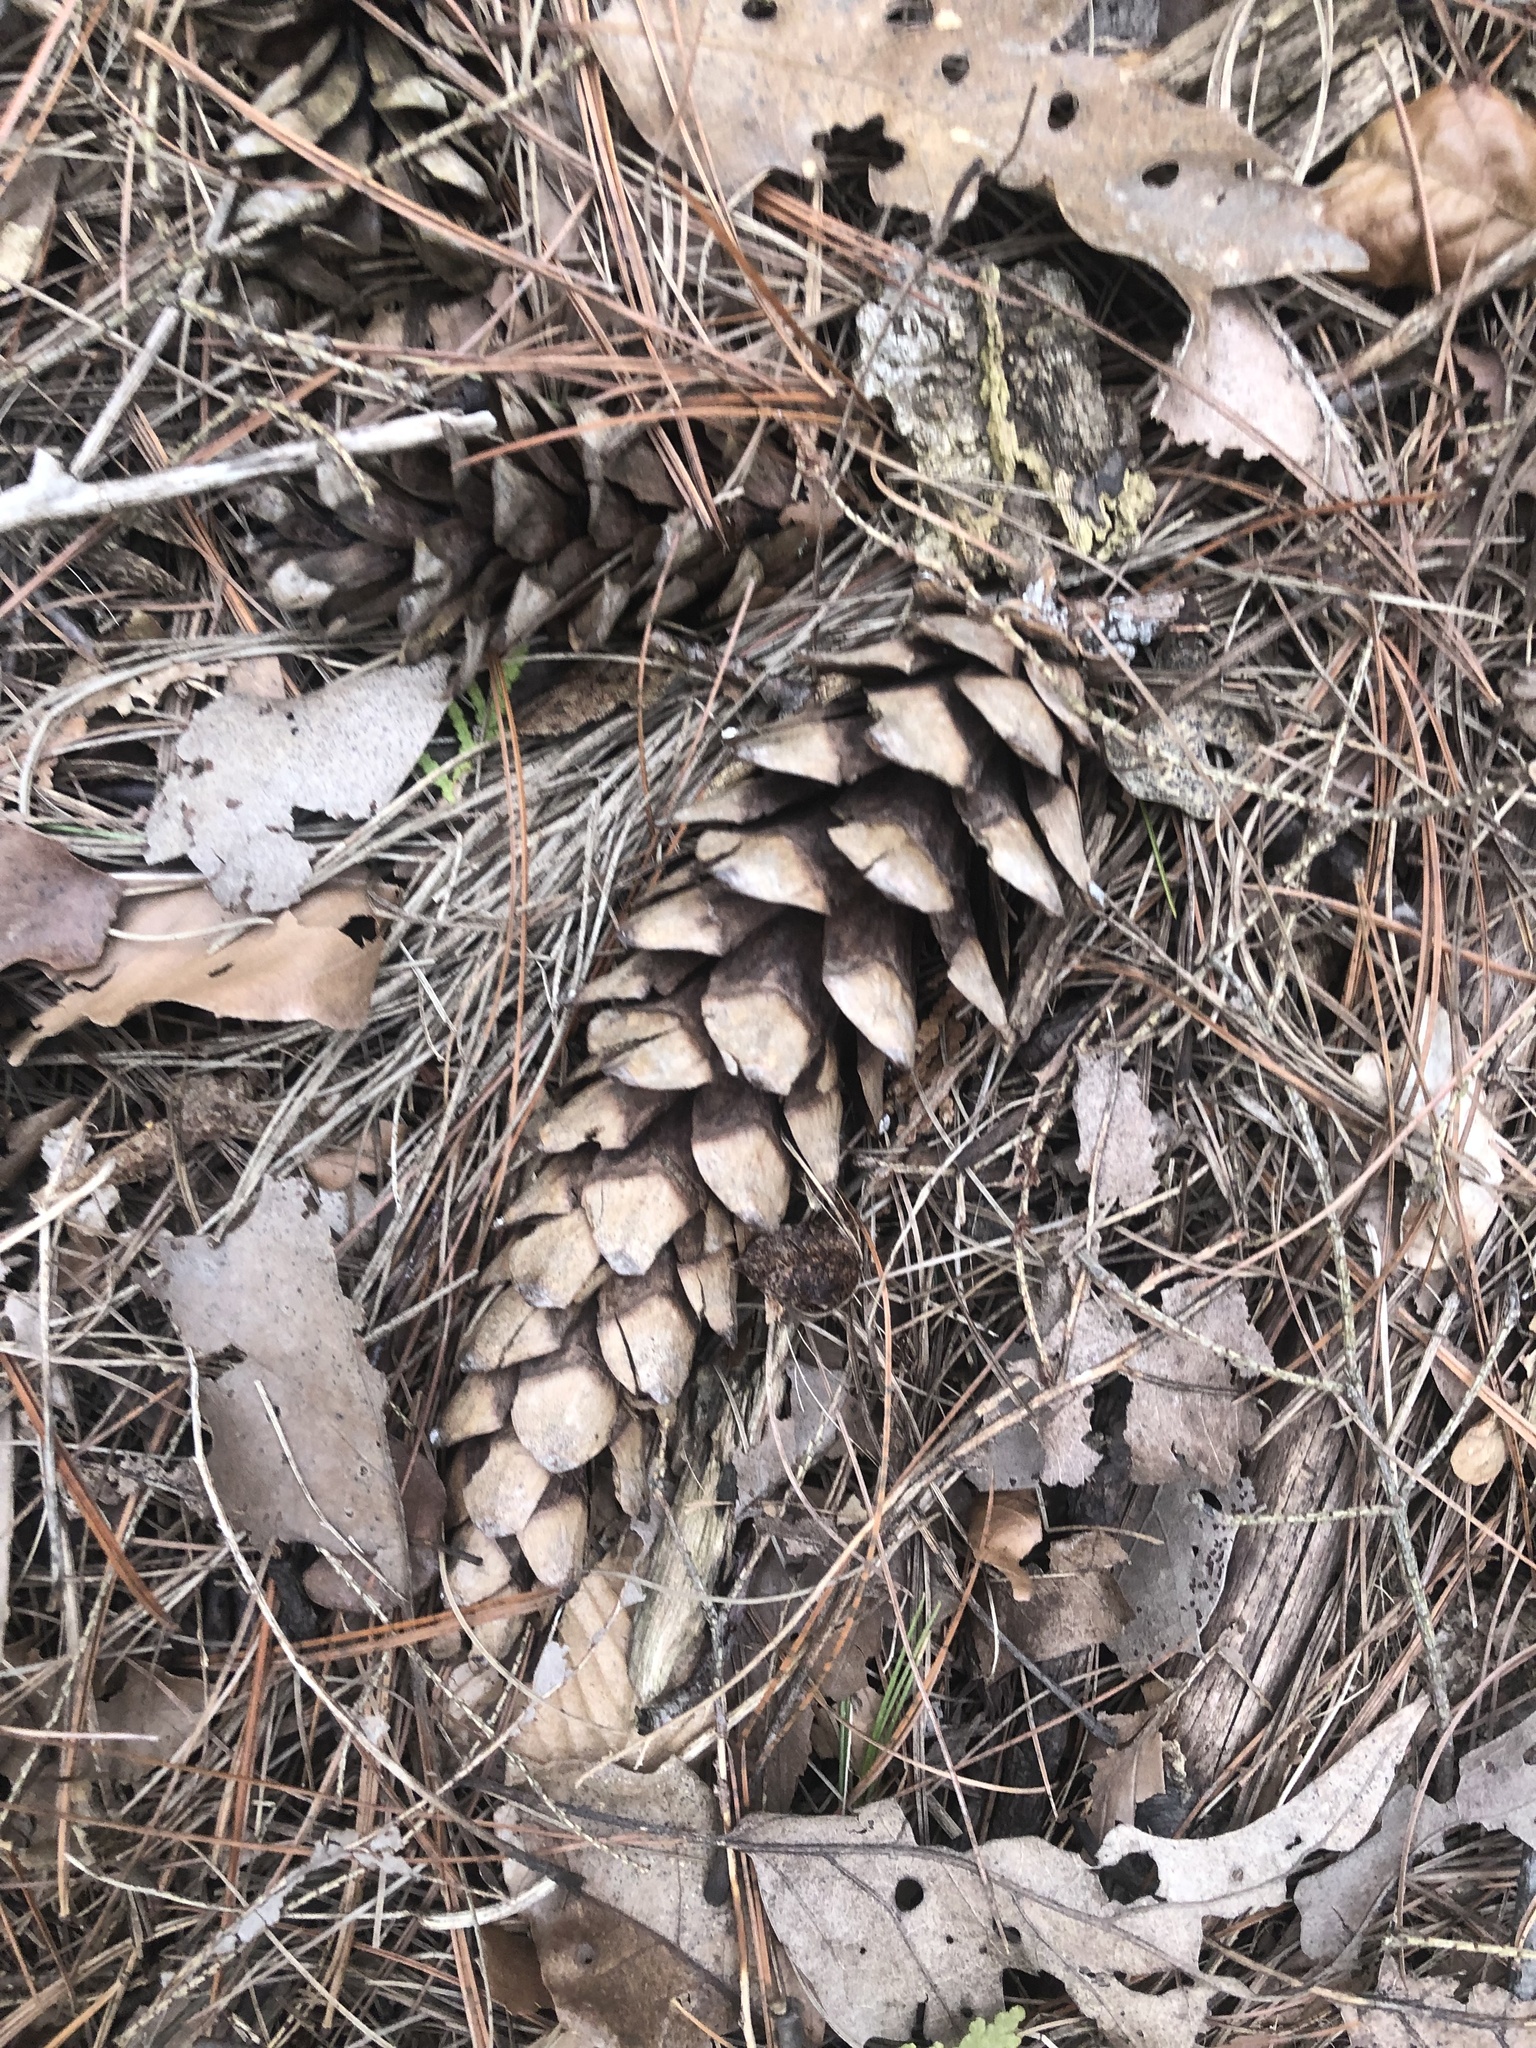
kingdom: Plantae
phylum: Tracheophyta
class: Pinopsida
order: Pinales
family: Pinaceae
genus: Pinus
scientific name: Pinus strobus
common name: Weymouth pine
